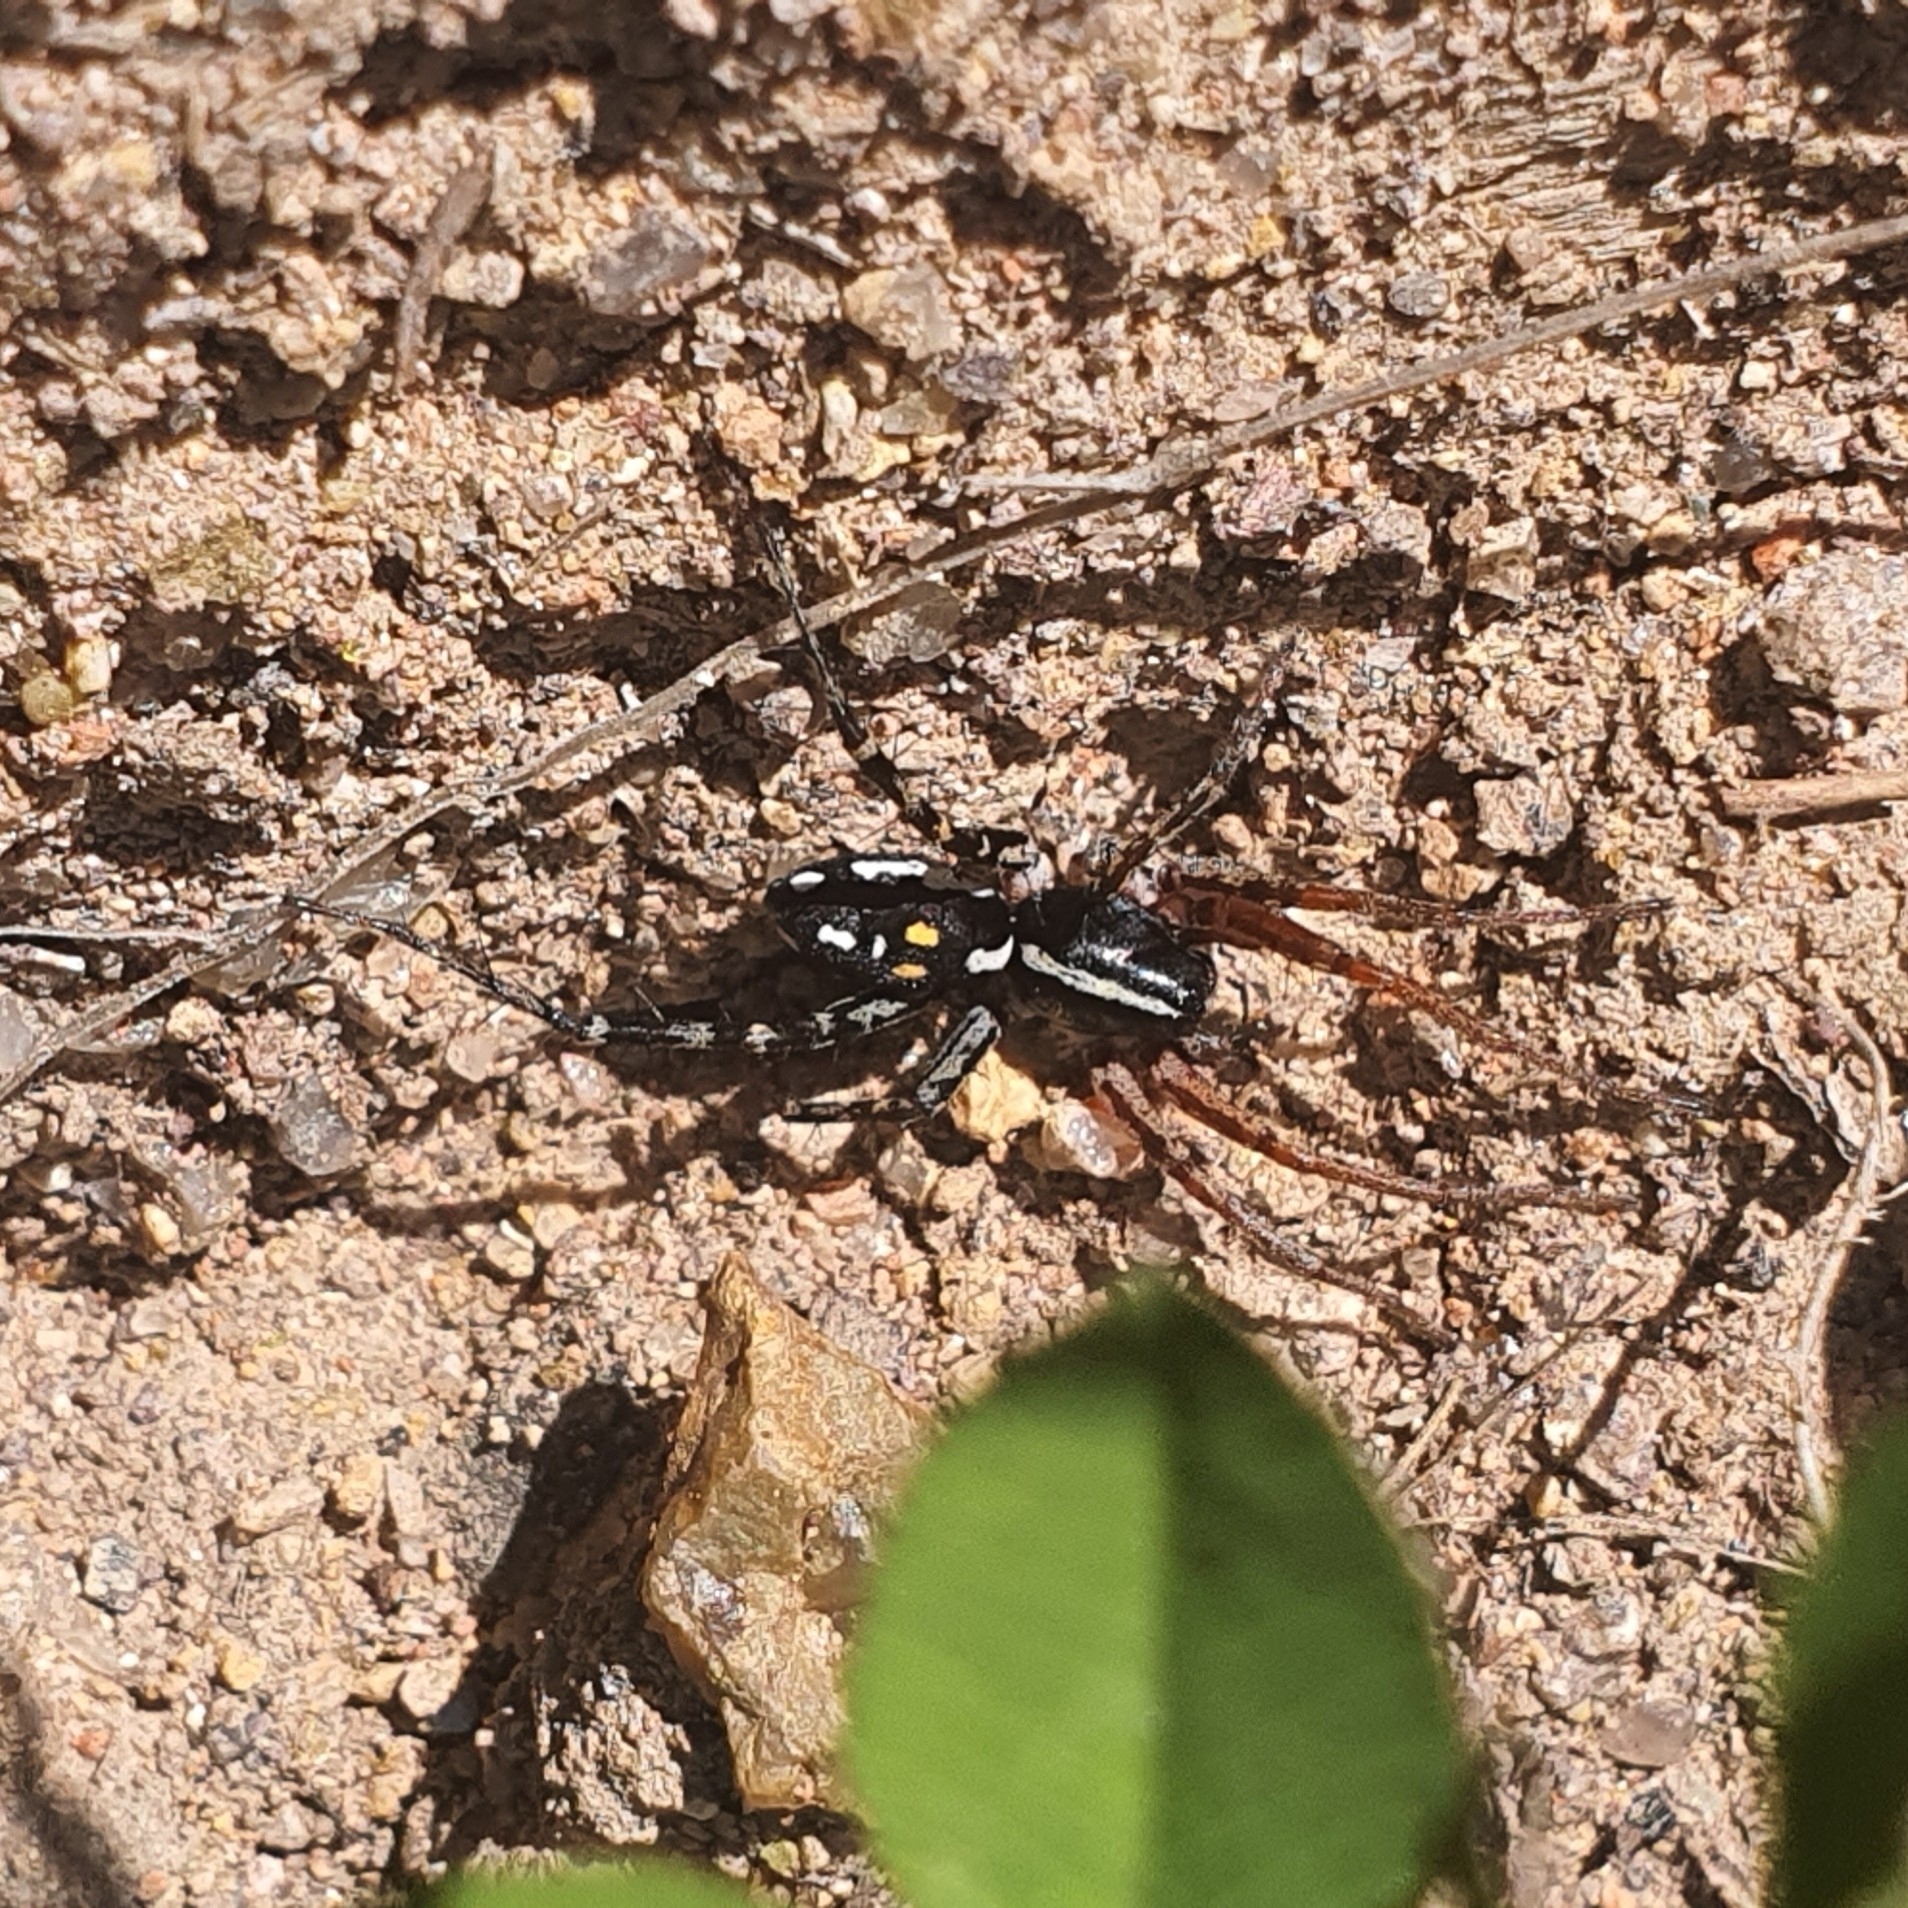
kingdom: Animalia
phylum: Arthropoda
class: Arachnida
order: Araneae
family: Corinnidae
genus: Nyssus
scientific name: Nyssus coloripes
